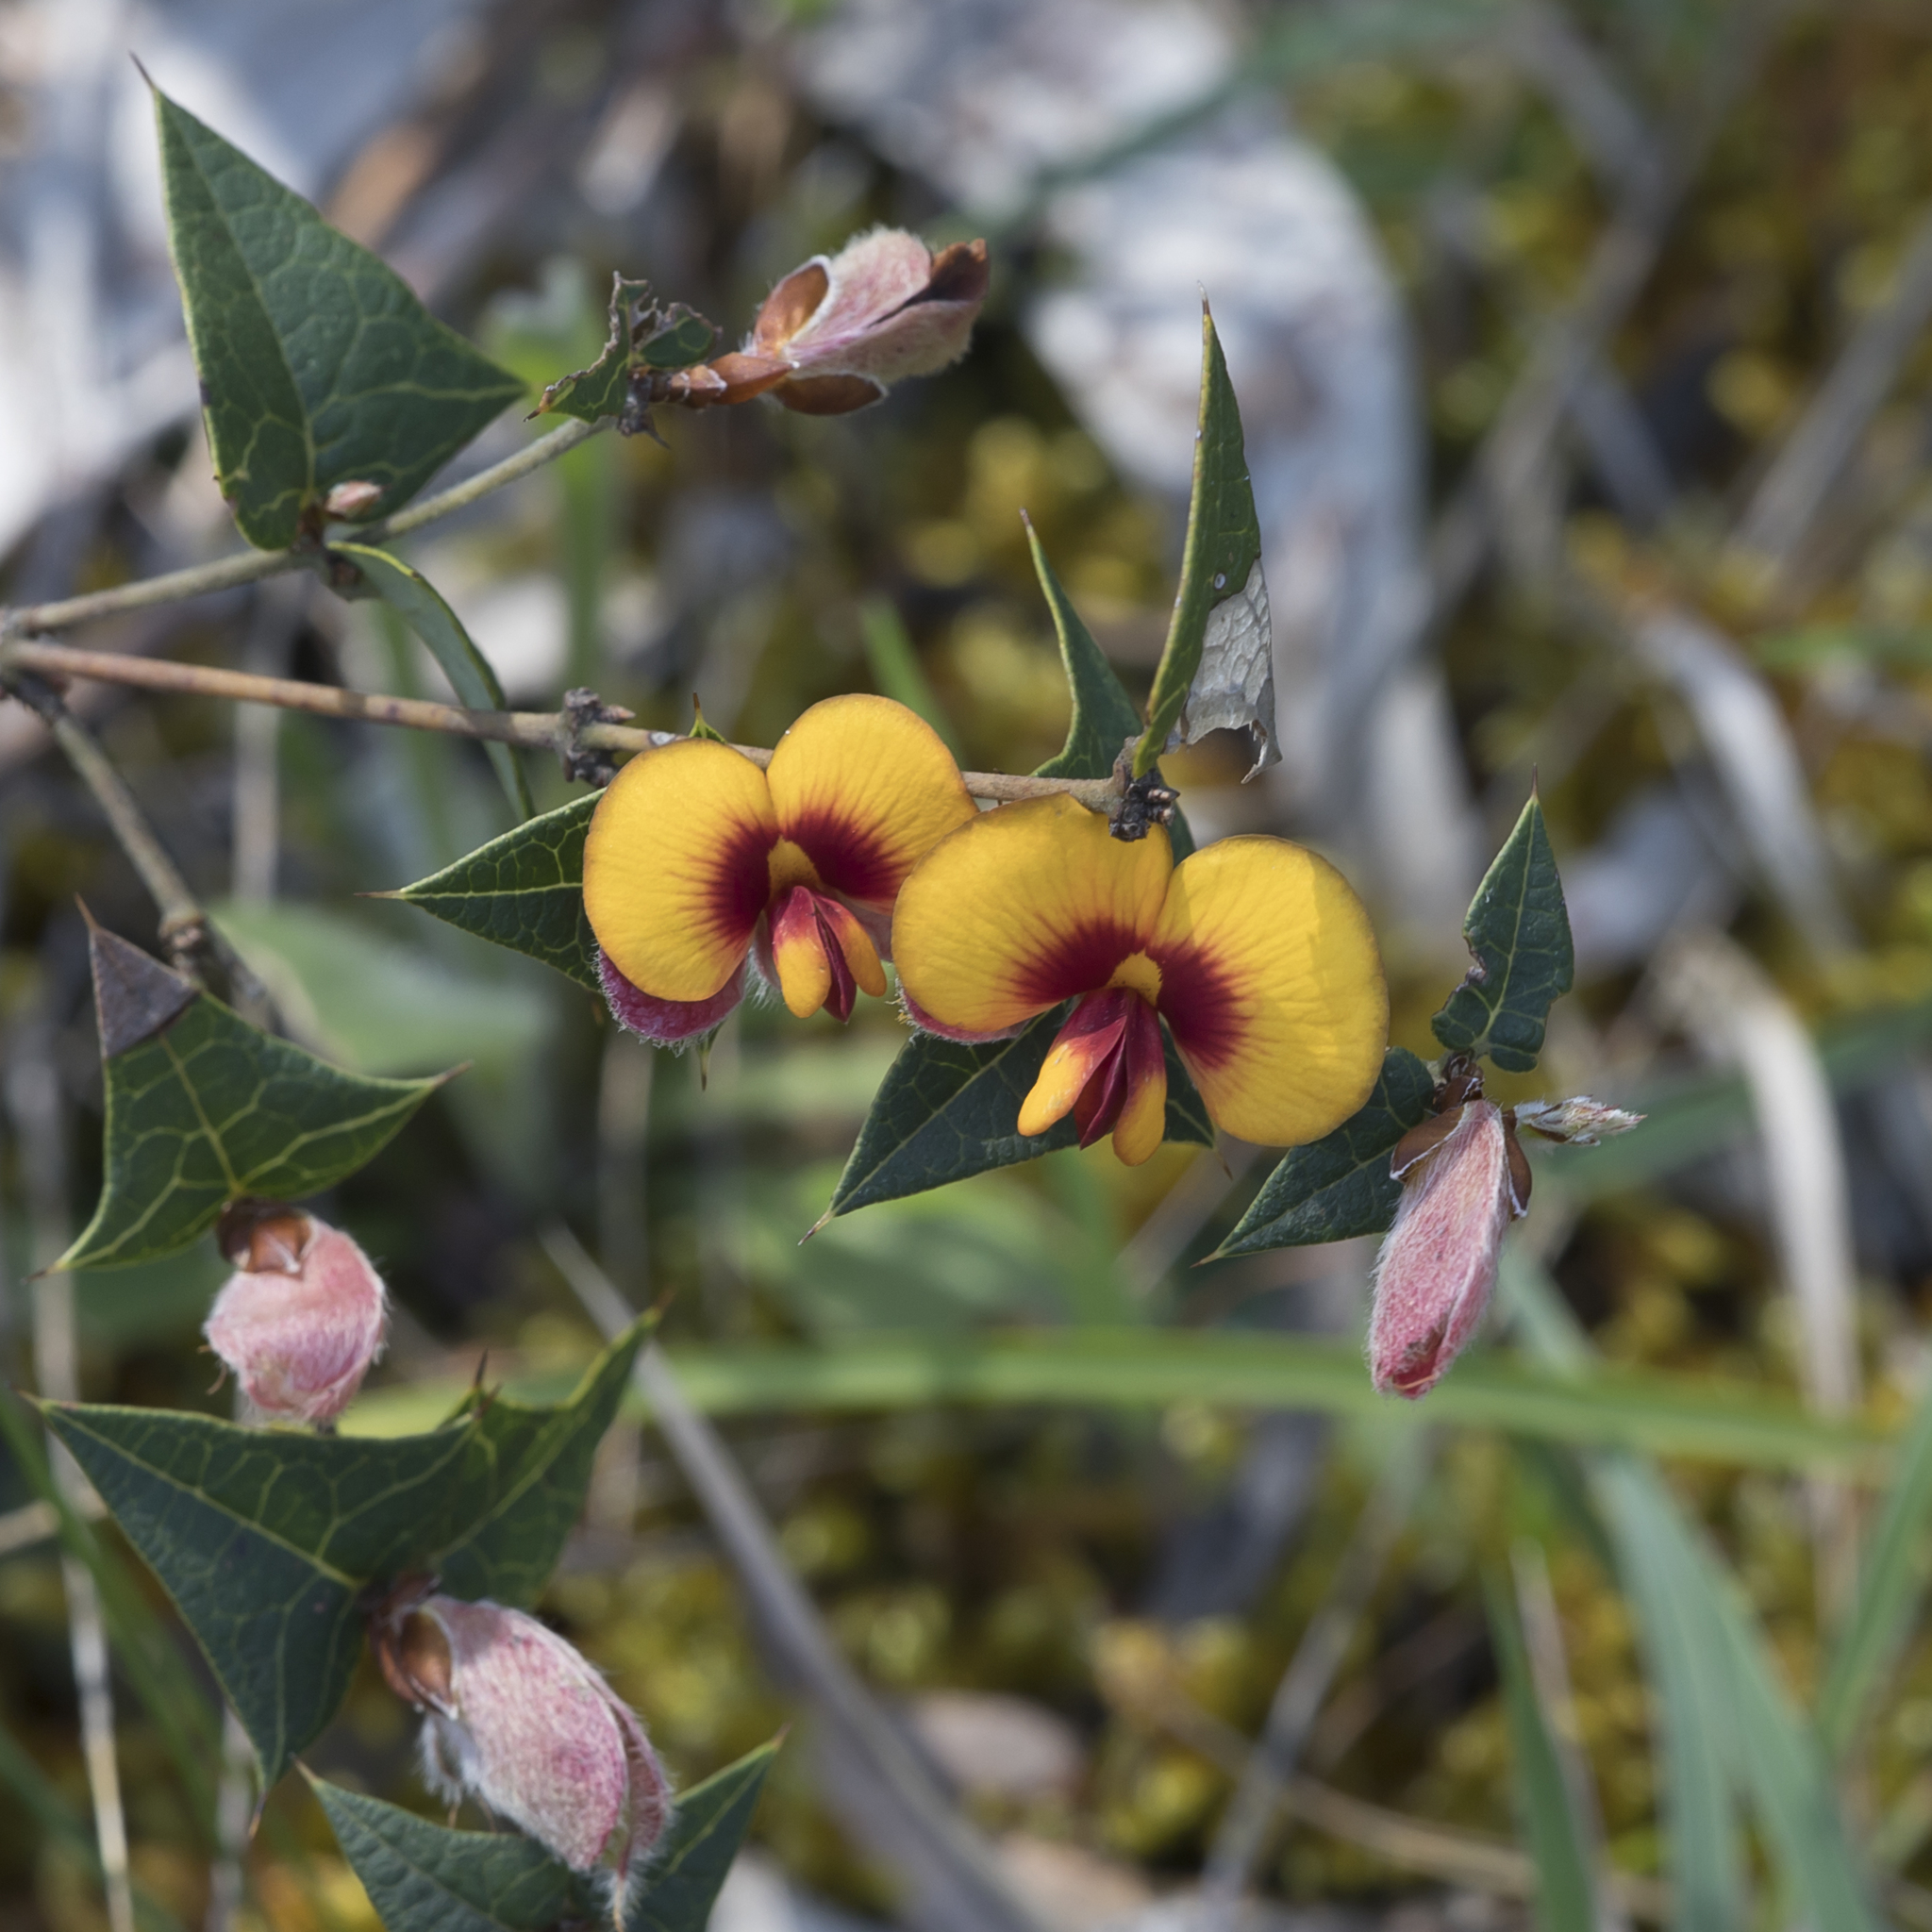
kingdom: Plantae
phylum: Tracheophyta
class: Magnoliopsida
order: Fabales
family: Fabaceae
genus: Platylobium
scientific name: Platylobium obtusangulum
